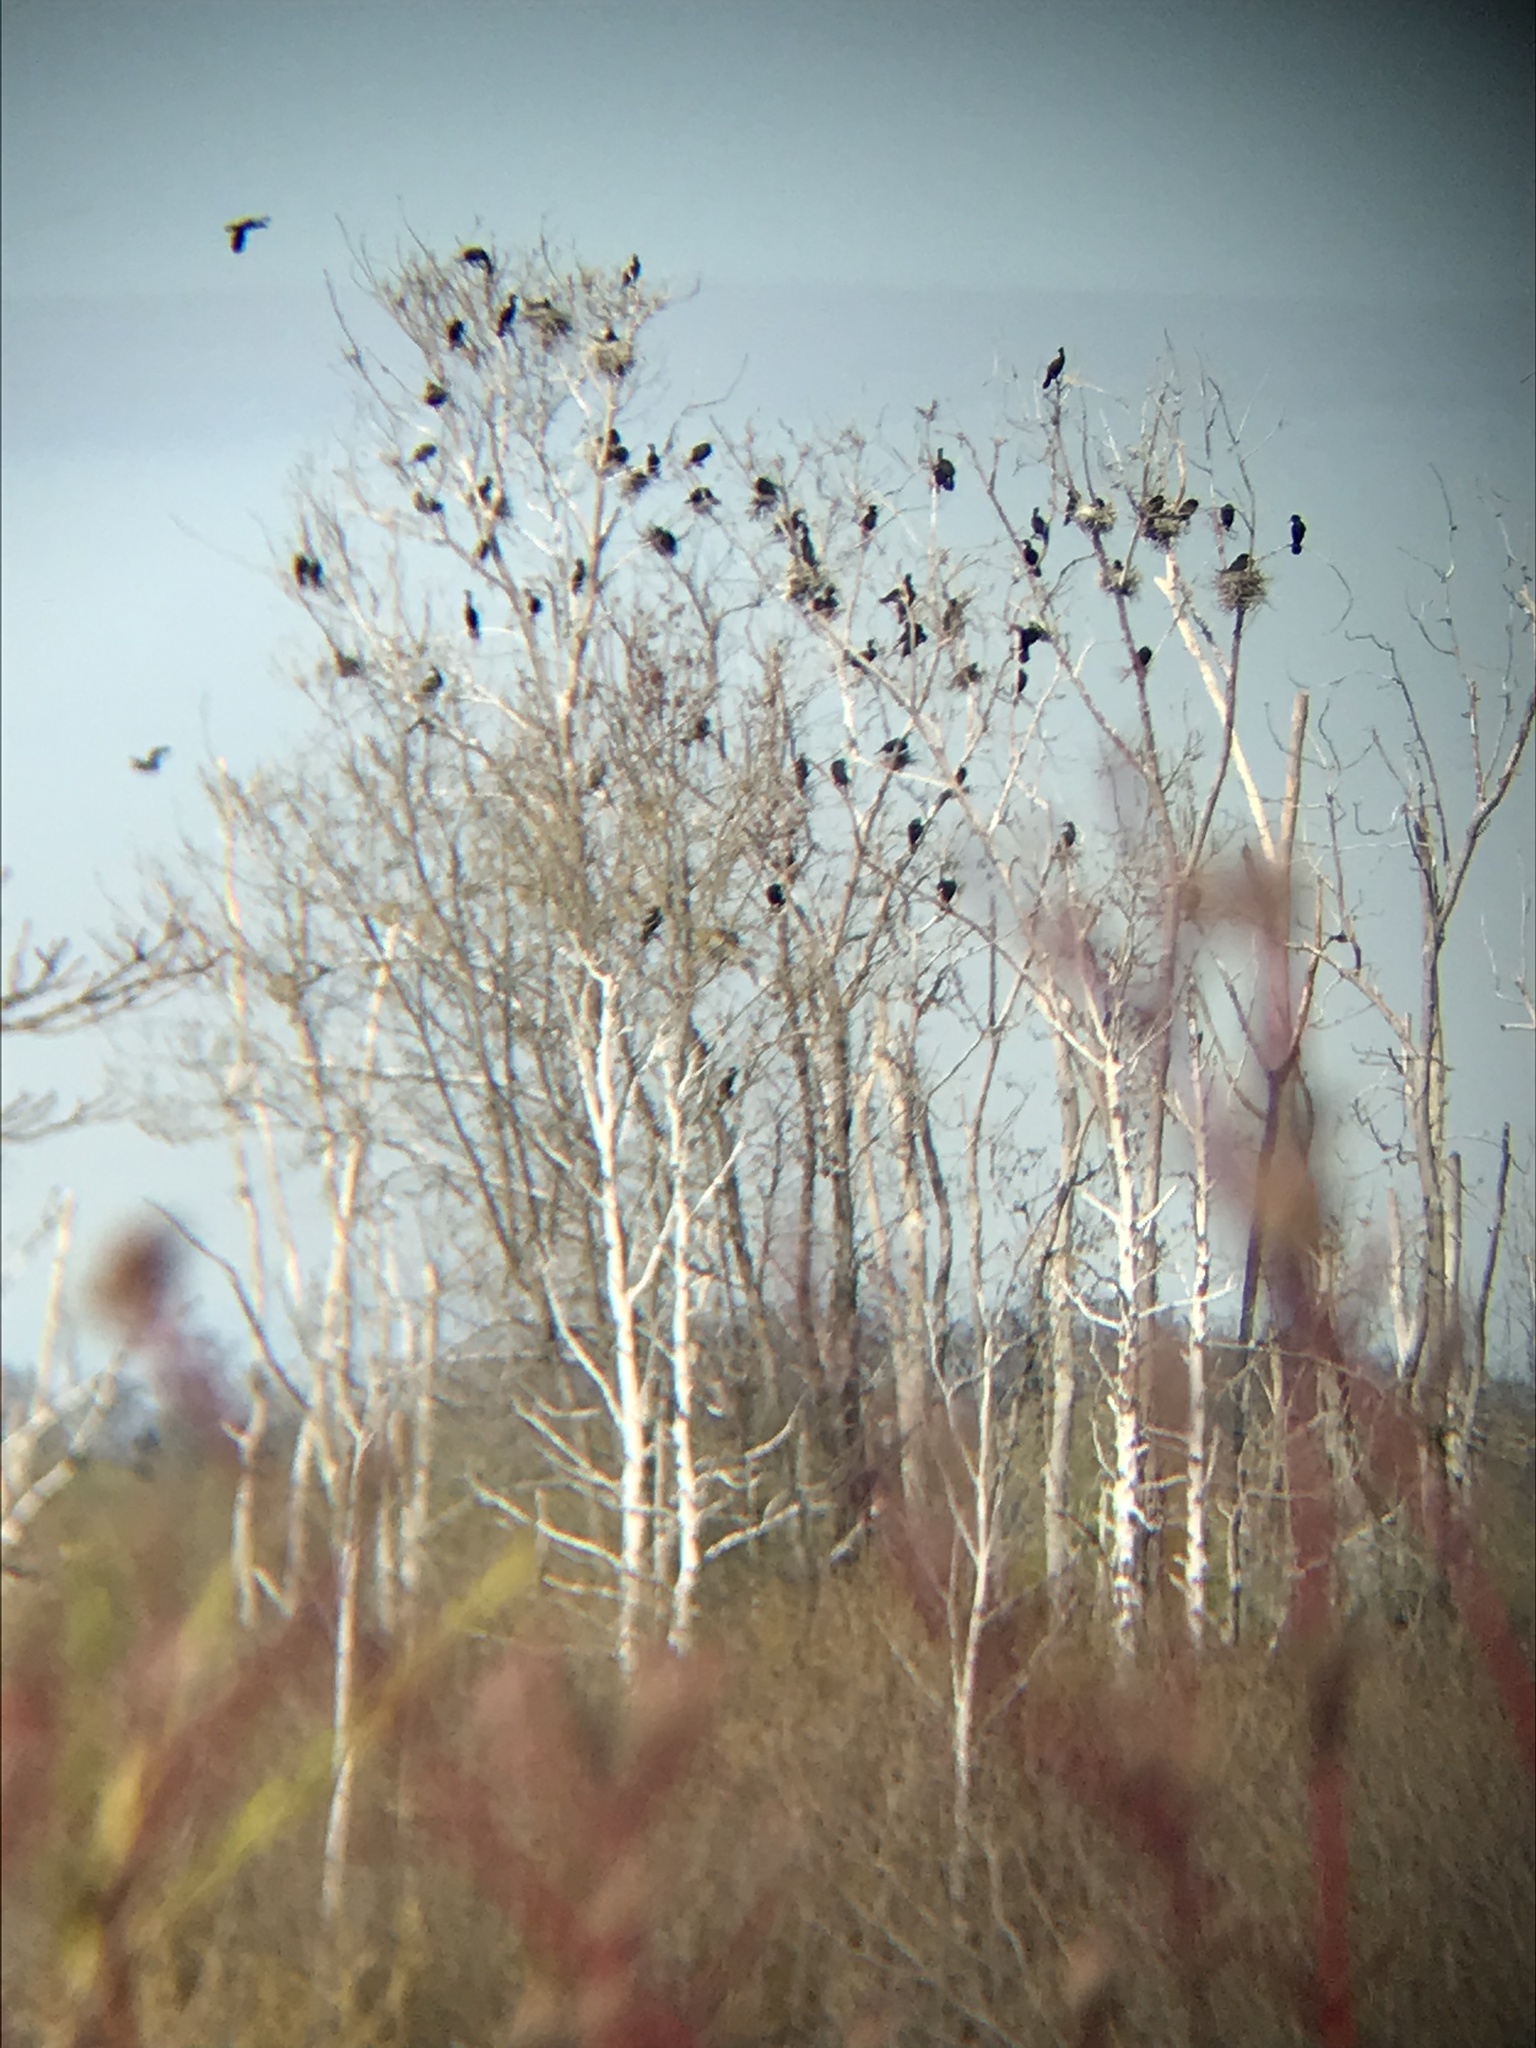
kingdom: Animalia
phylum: Chordata
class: Aves
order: Suliformes
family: Phalacrocoracidae
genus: Phalacrocorax
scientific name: Phalacrocorax auritus
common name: Double-crested cormorant
